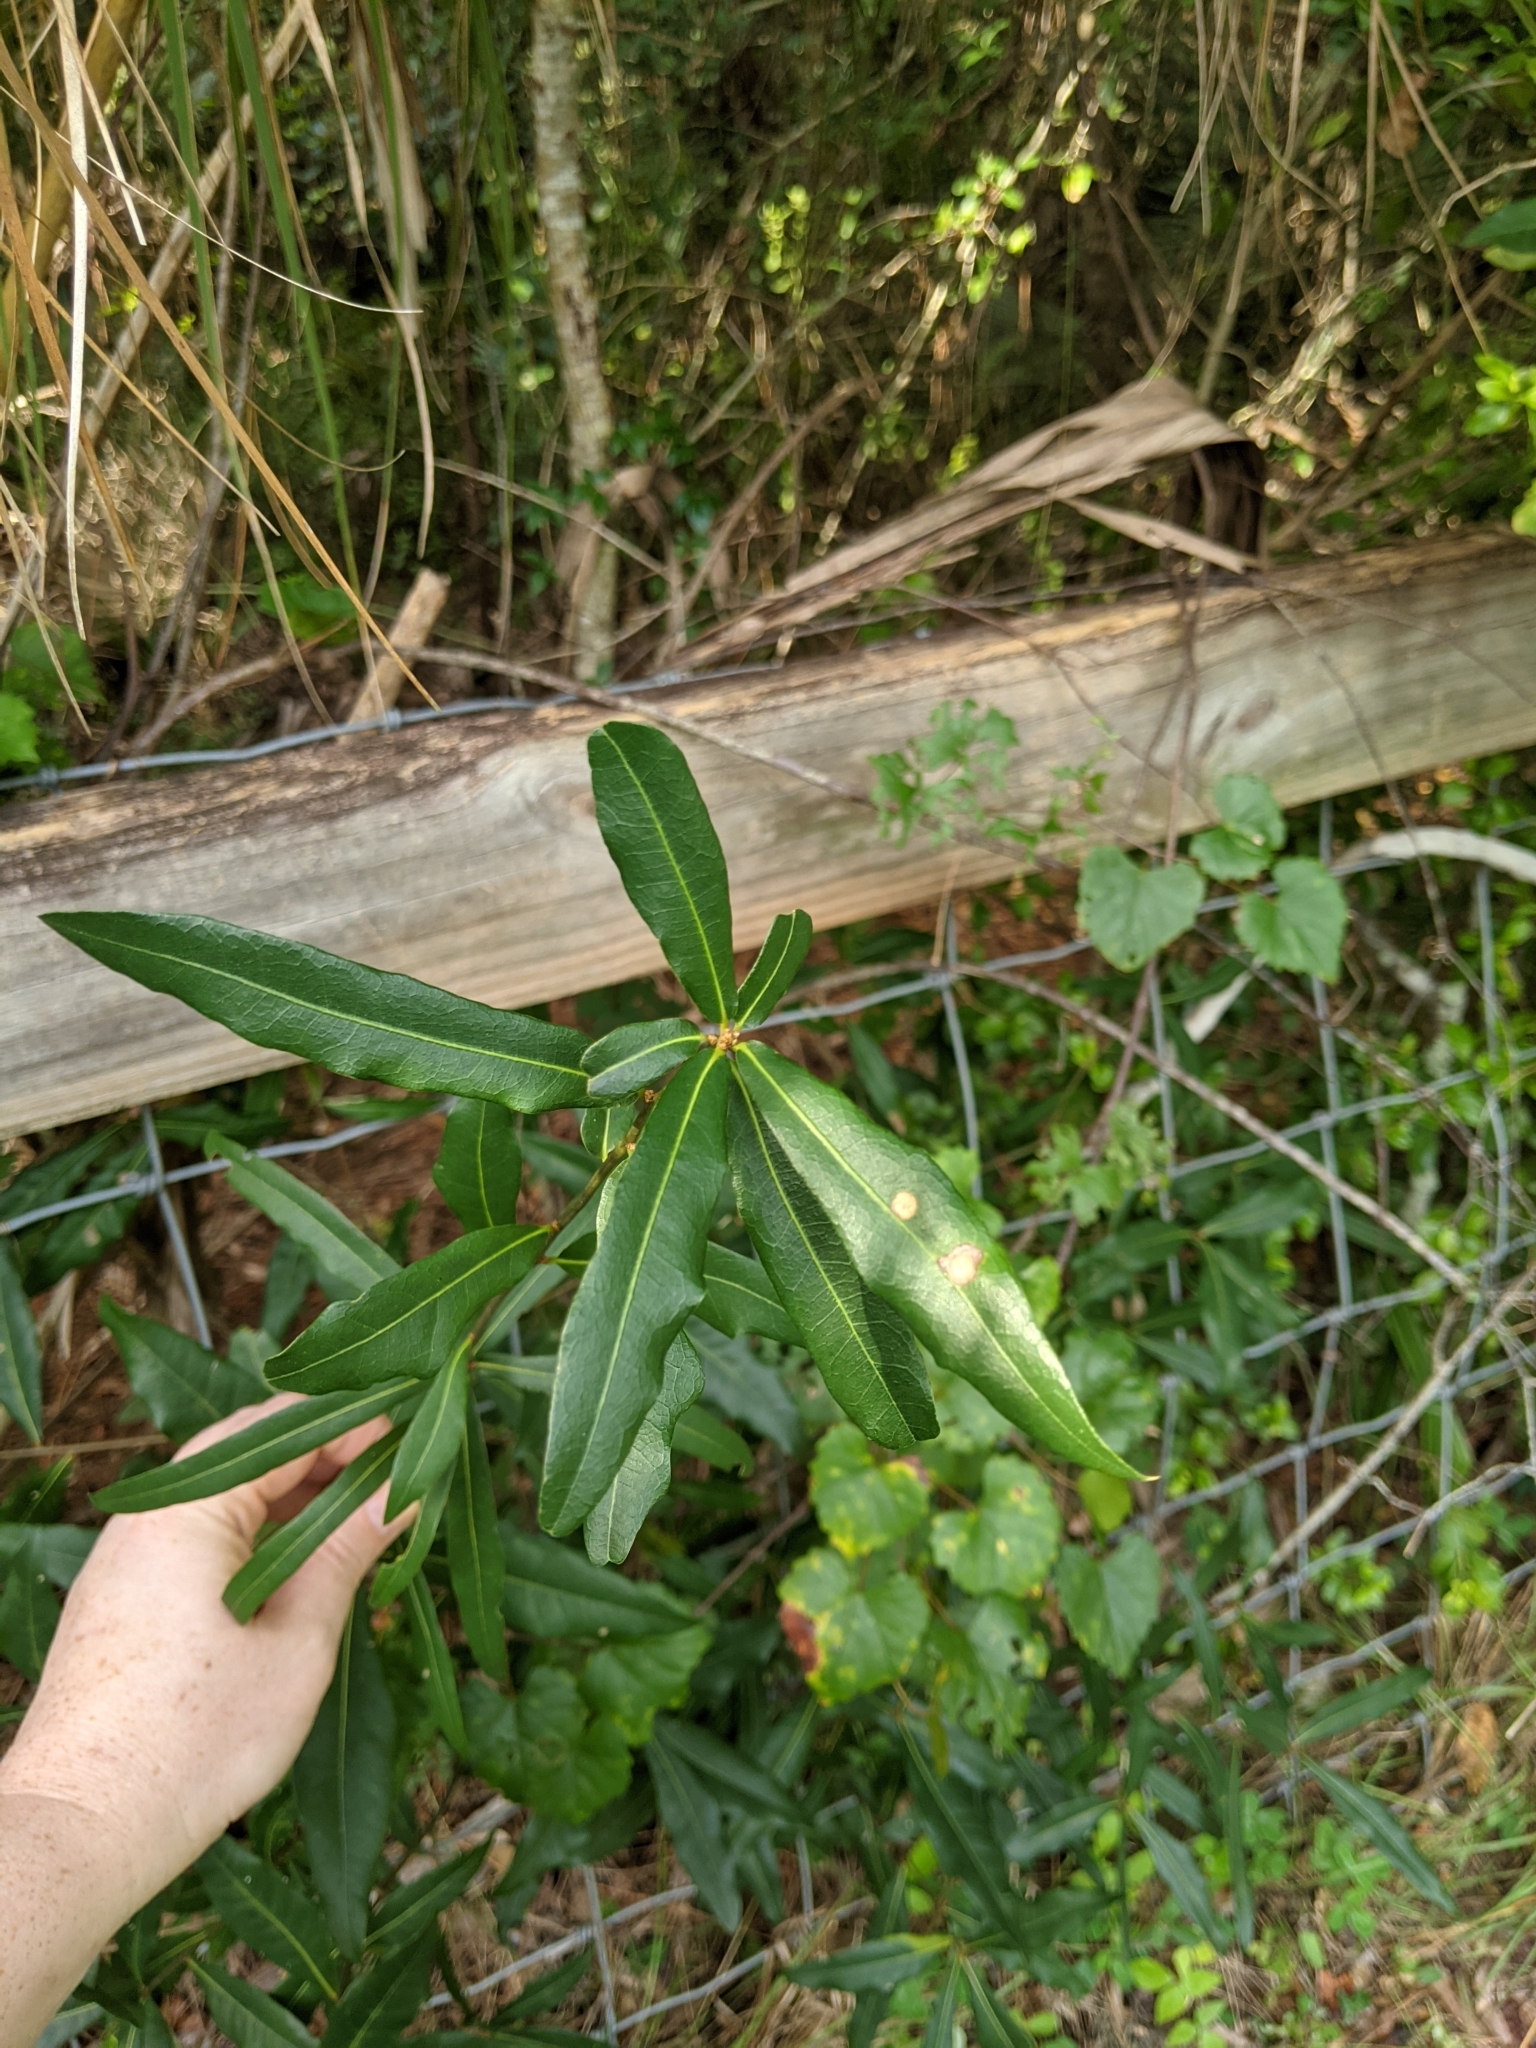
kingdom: Plantae
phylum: Tracheophyta
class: Magnoliopsida
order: Fagales
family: Fagaceae
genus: Quercus
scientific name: Quercus laurifolia
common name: Swamp laurel oak
